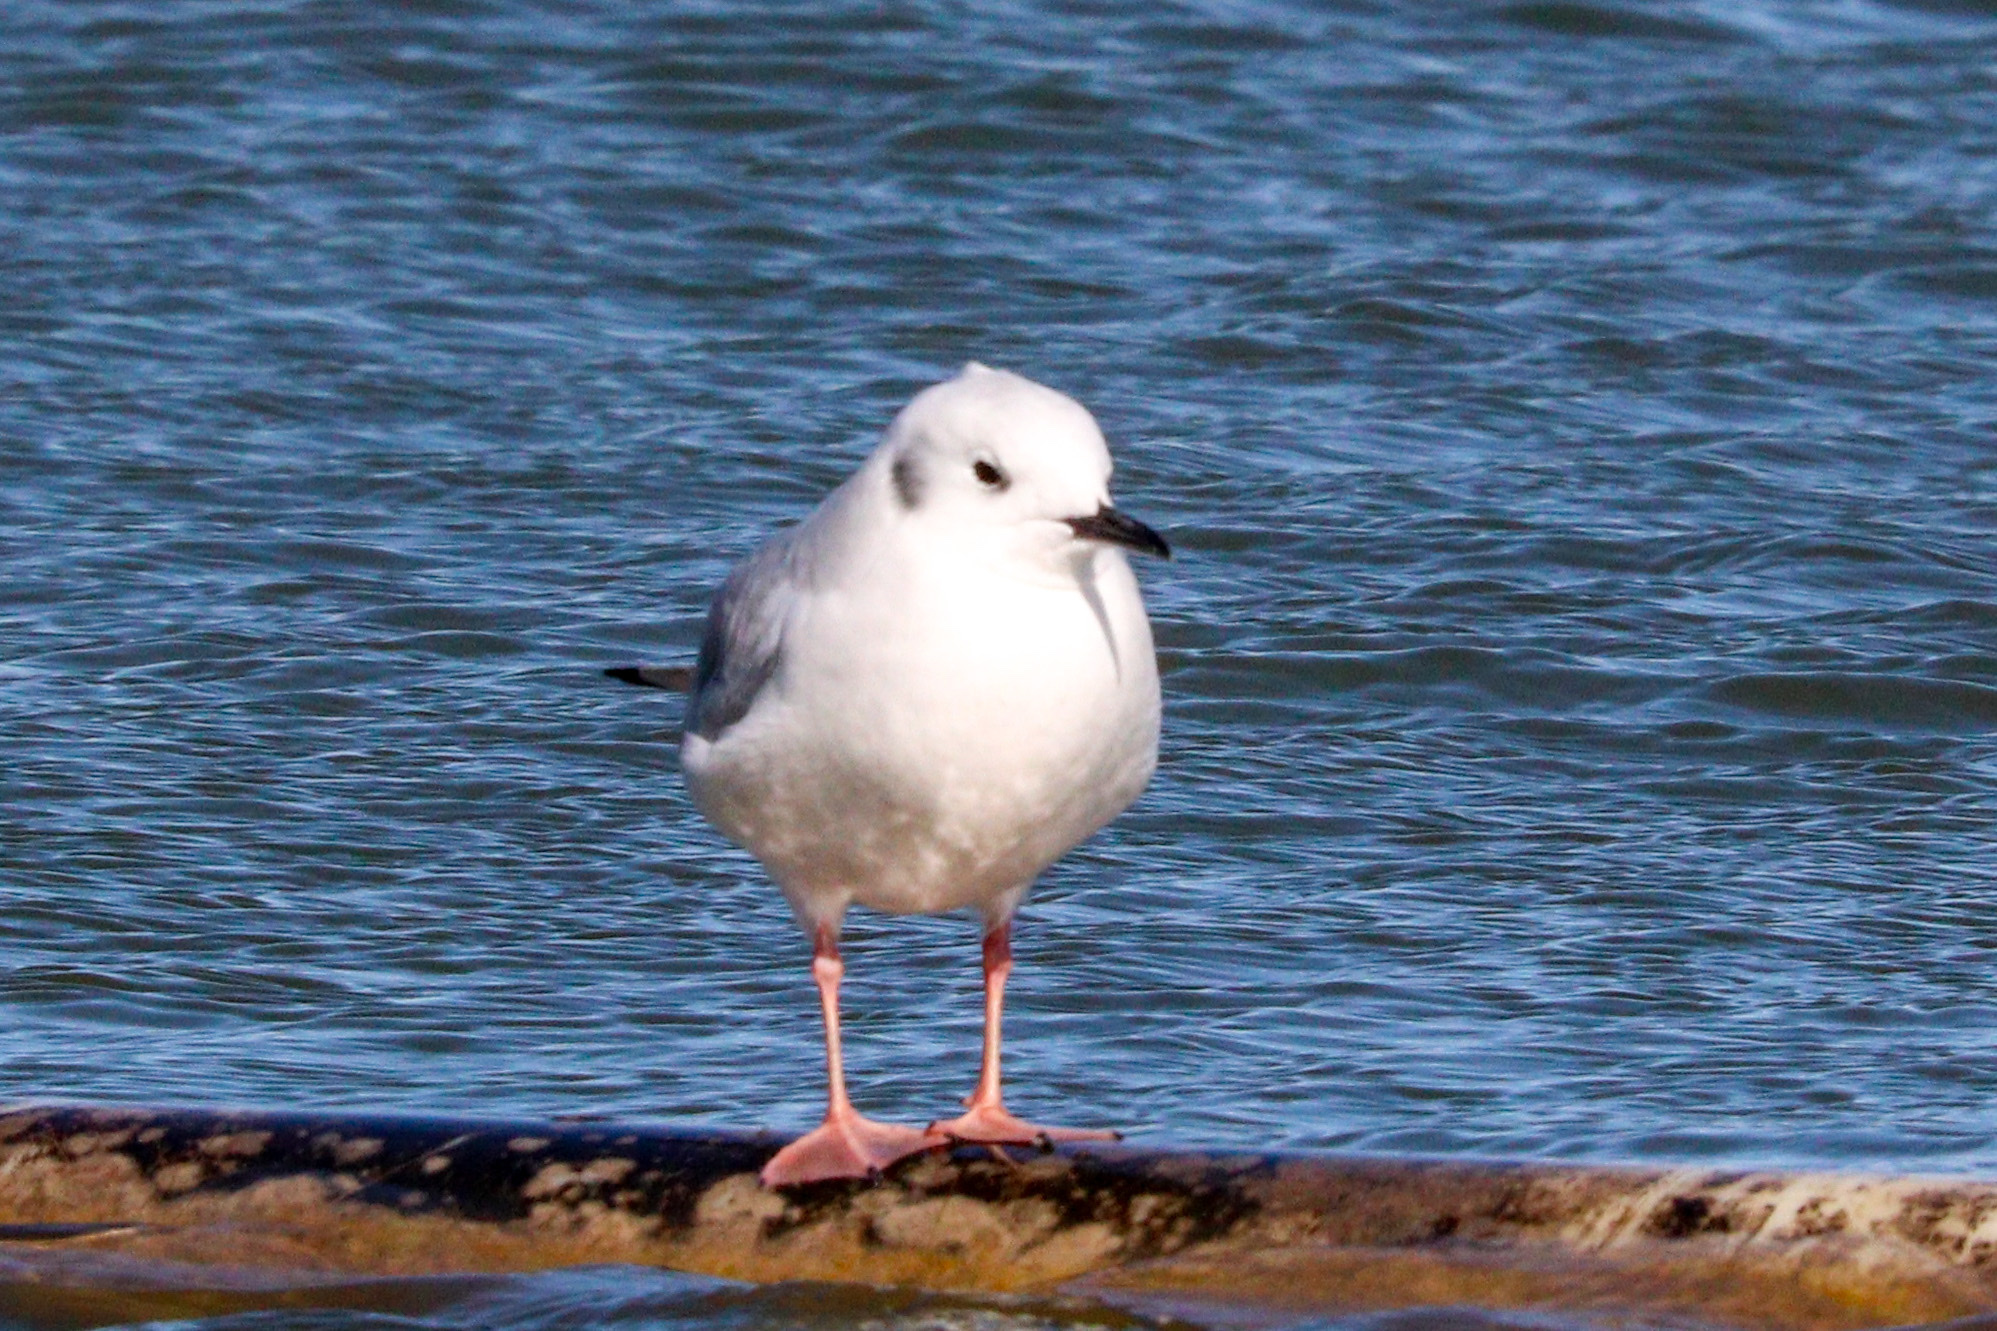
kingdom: Animalia
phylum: Chordata
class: Aves
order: Charadriiformes
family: Laridae
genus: Chroicocephalus
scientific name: Chroicocephalus philadelphia
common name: Bonaparte's gull
